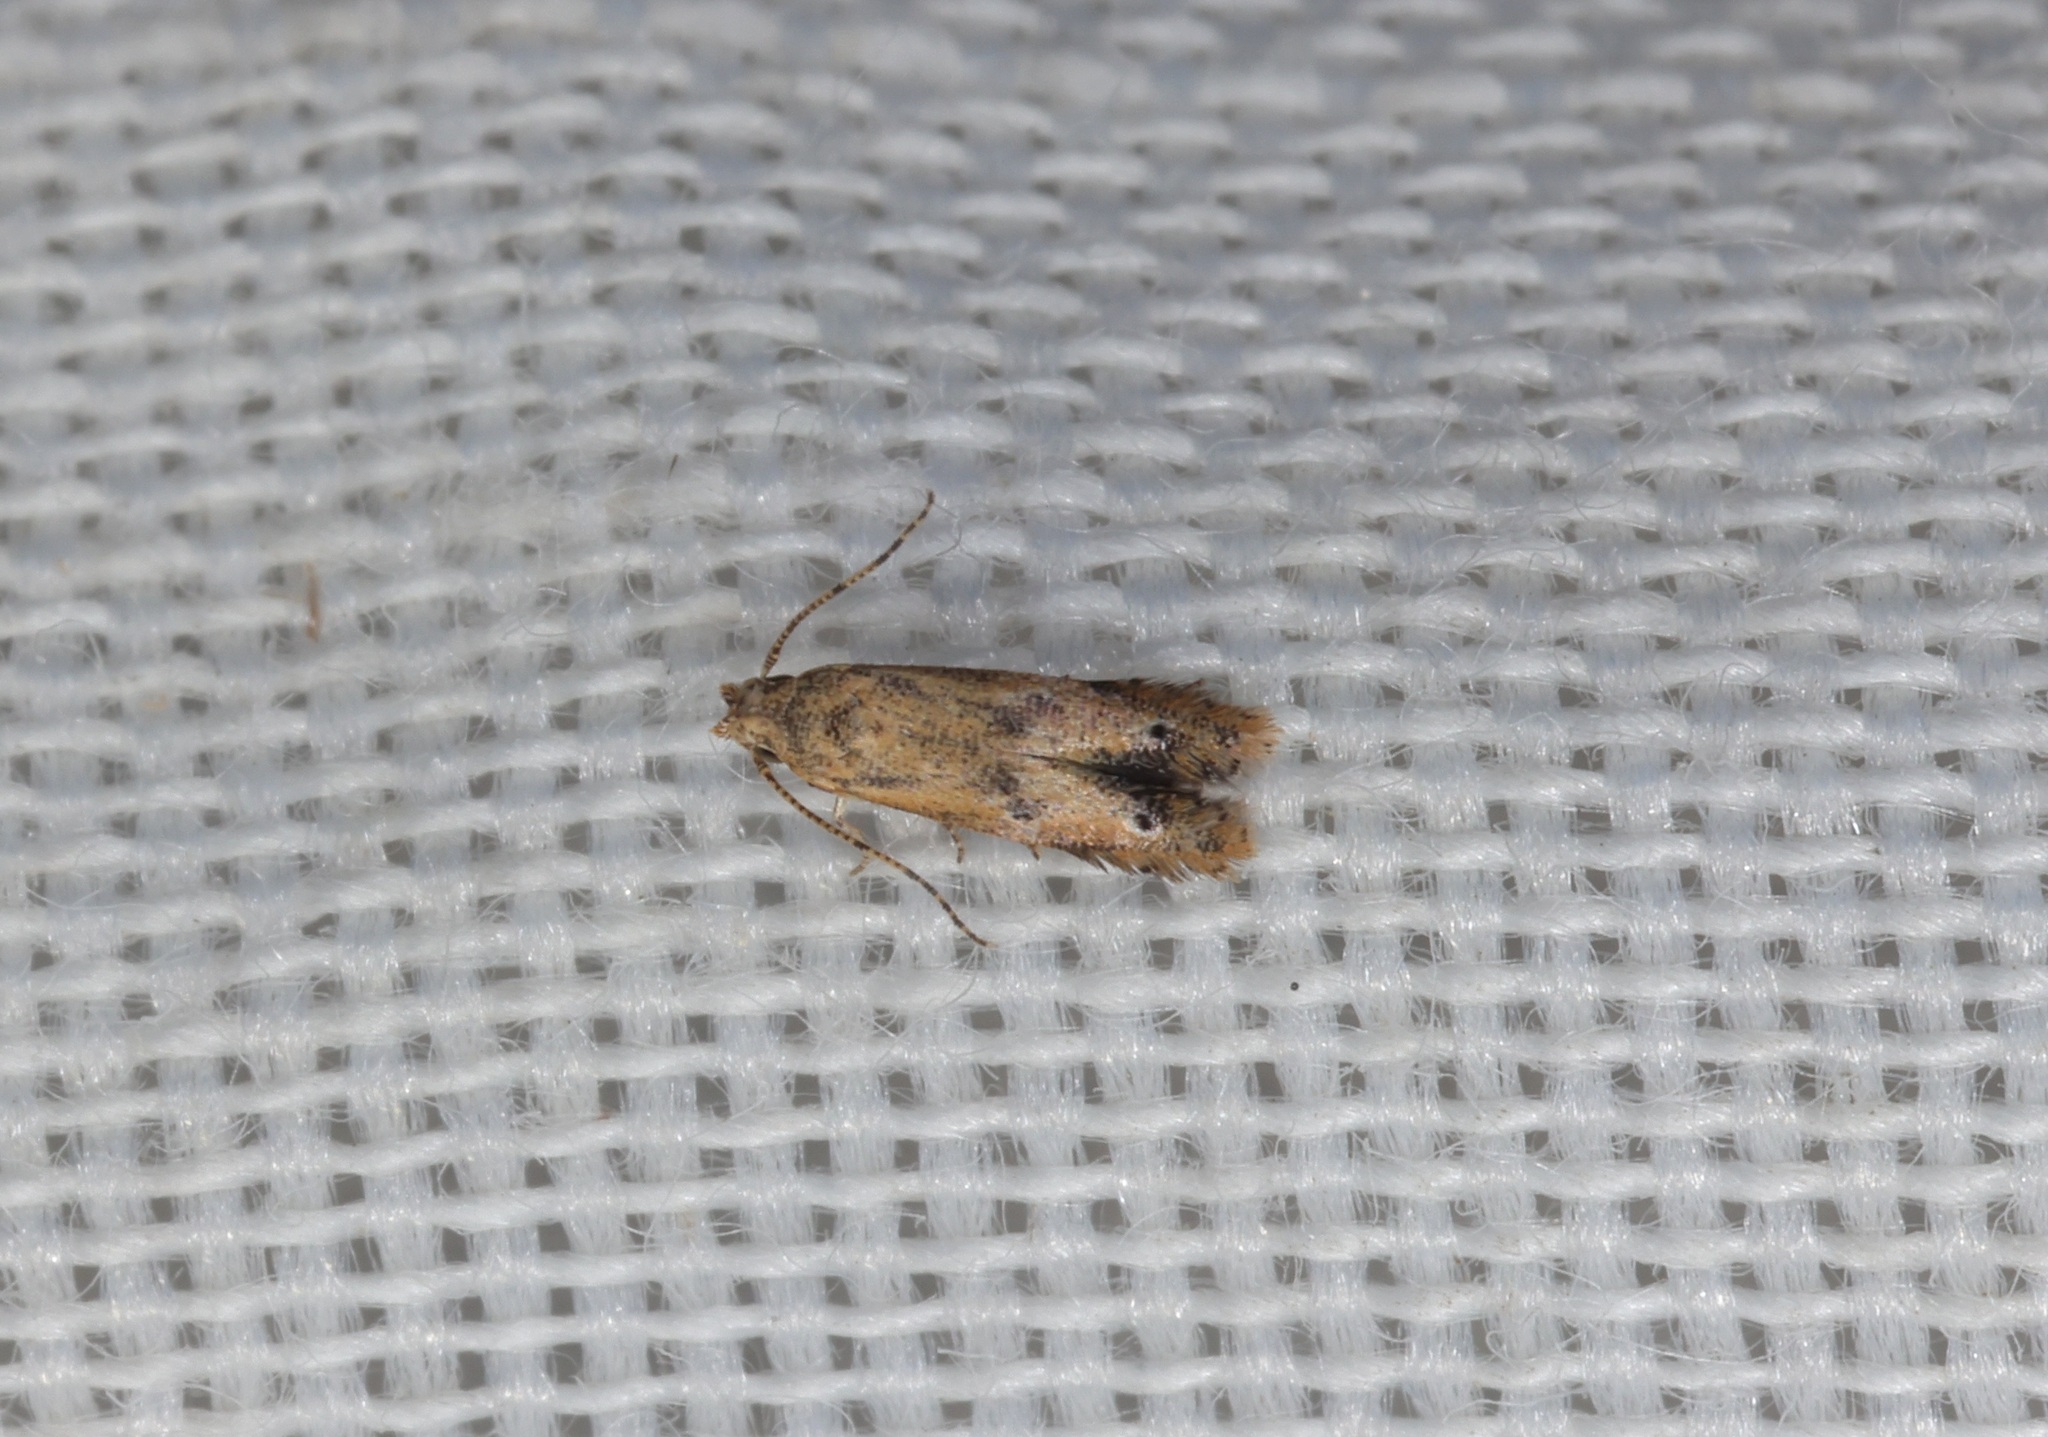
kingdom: Animalia
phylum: Arthropoda
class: Insecta
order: Lepidoptera
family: Parametriotidae
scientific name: Parametriotidae
